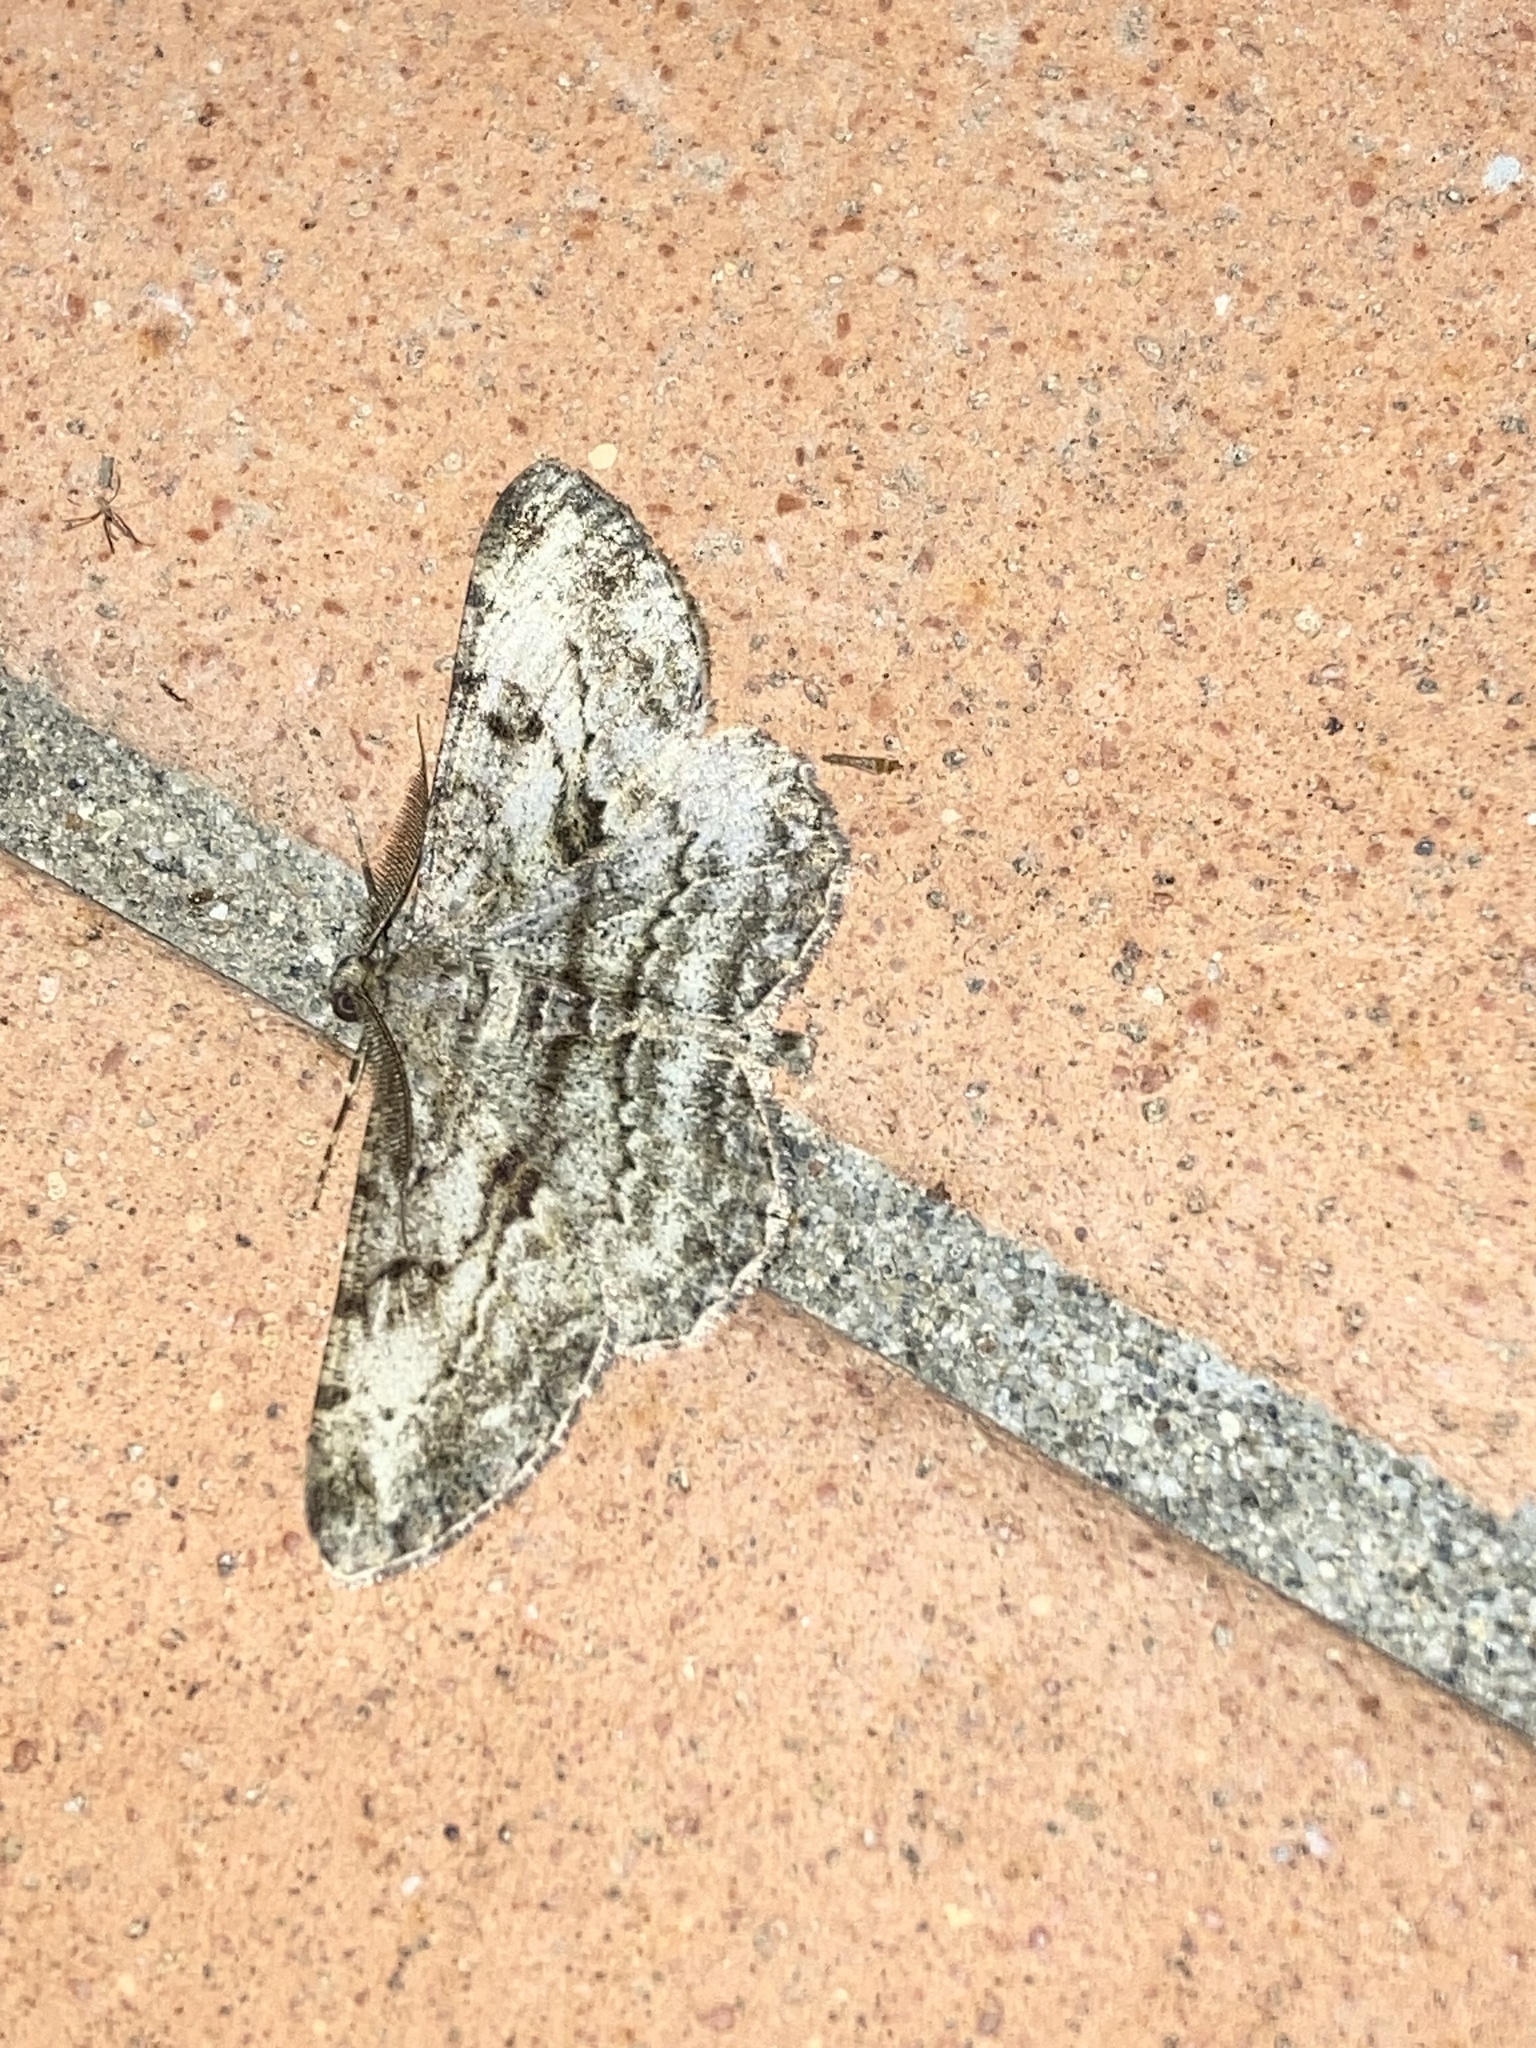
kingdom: Animalia
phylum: Arthropoda
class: Insecta
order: Lepidoptera
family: Geometridae
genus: Peribatodes
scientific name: Peribatodes rhomboidaria
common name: Willow beauty
